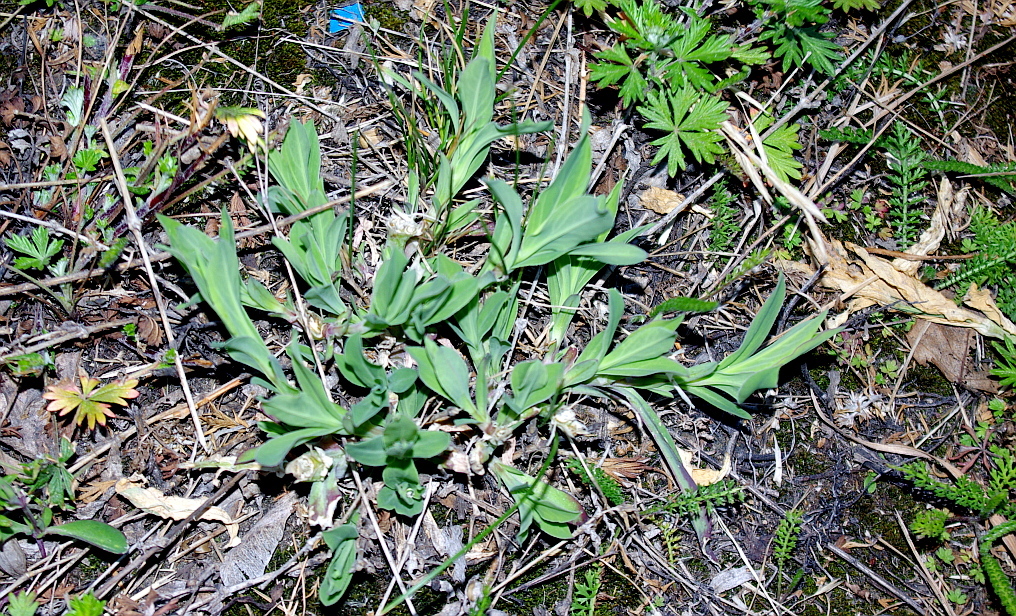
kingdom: Plantae
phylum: Tracheophyta
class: Magnoliopsida
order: Caryophyllales
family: Caryophyllaceae
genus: Silene
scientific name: Silene vulgaris
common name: Bladder campion
